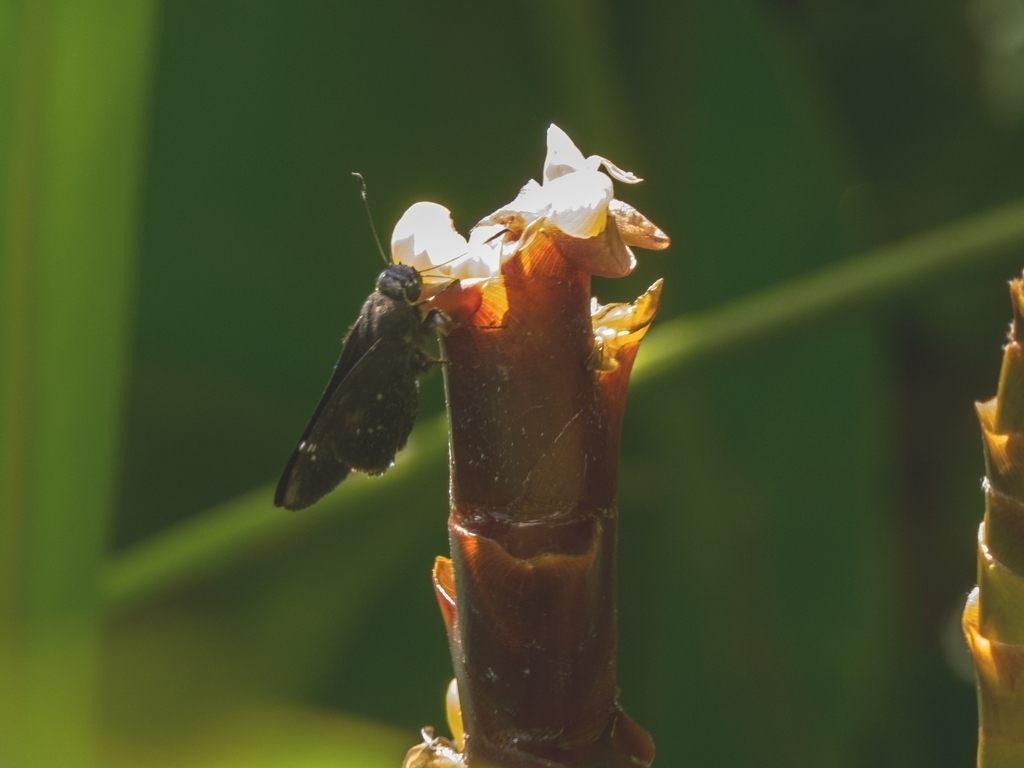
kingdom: Animalia
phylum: Arthropoda
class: Insecta
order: Lepidoptera
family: Hesperiidae
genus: Rhinthon
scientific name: Rhinthon cubana
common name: Cuban skipper
